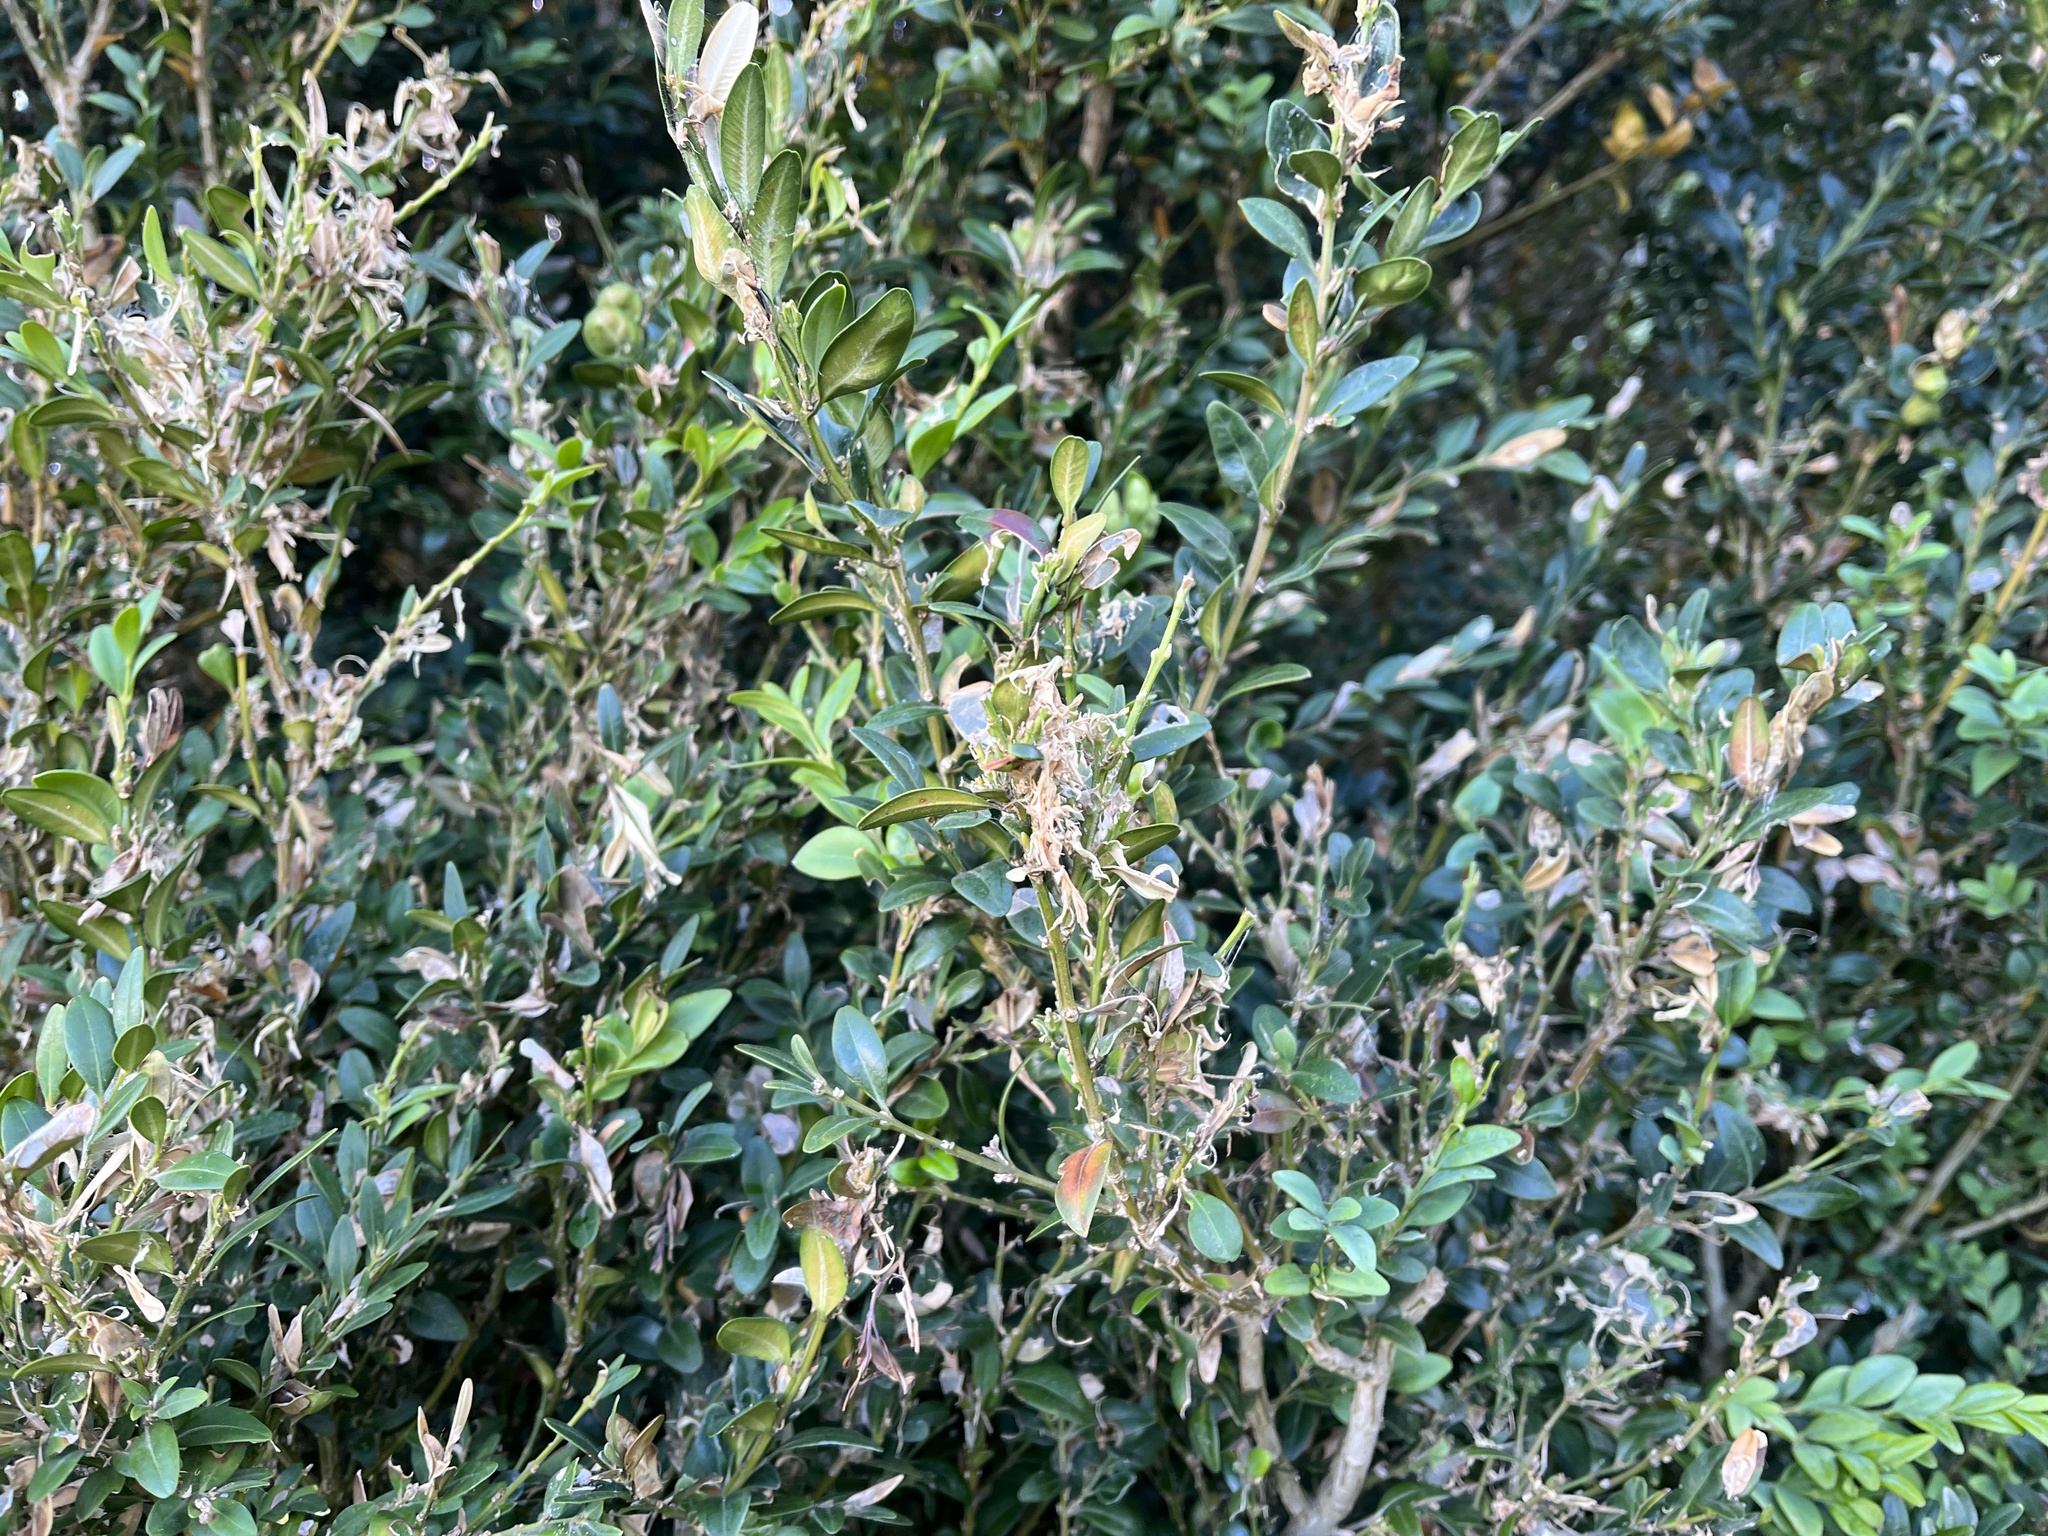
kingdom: Animalia
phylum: Arthropoda
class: Insecta
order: Lepidoptera
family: Crambidae
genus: Cydalima
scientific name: Cydalima perspectalis
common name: Box tree moth
